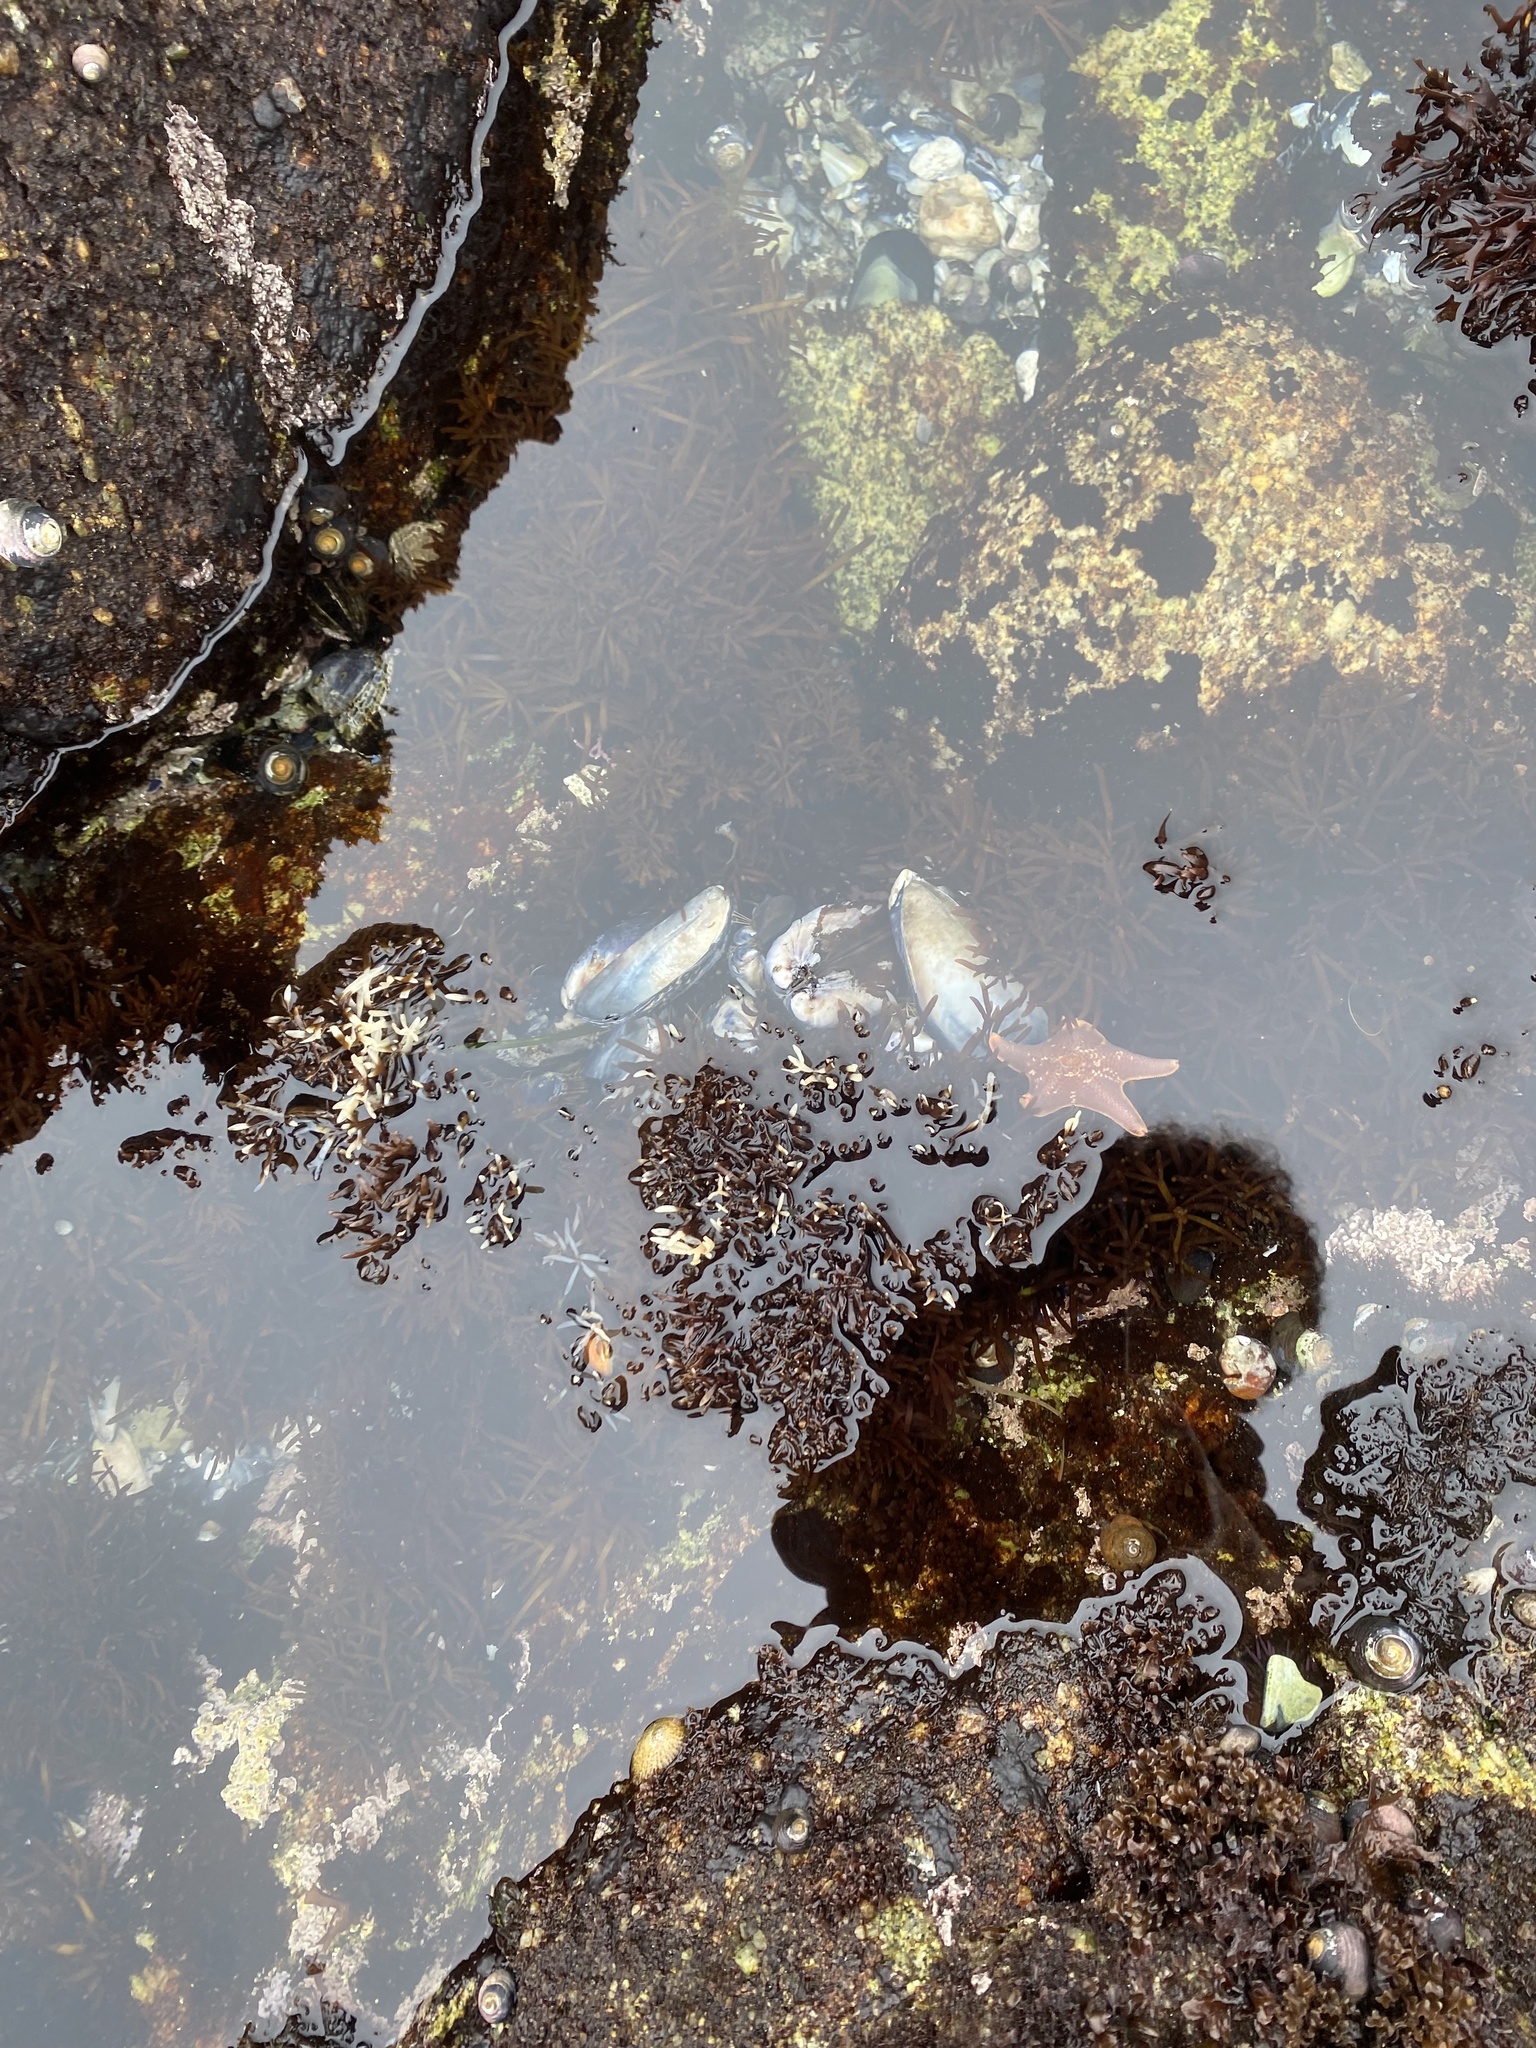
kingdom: Animalia
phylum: Echinodermata
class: Asteroidea
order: Valvatida
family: Asterinidae
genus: Patiria
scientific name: Patiria miniata
